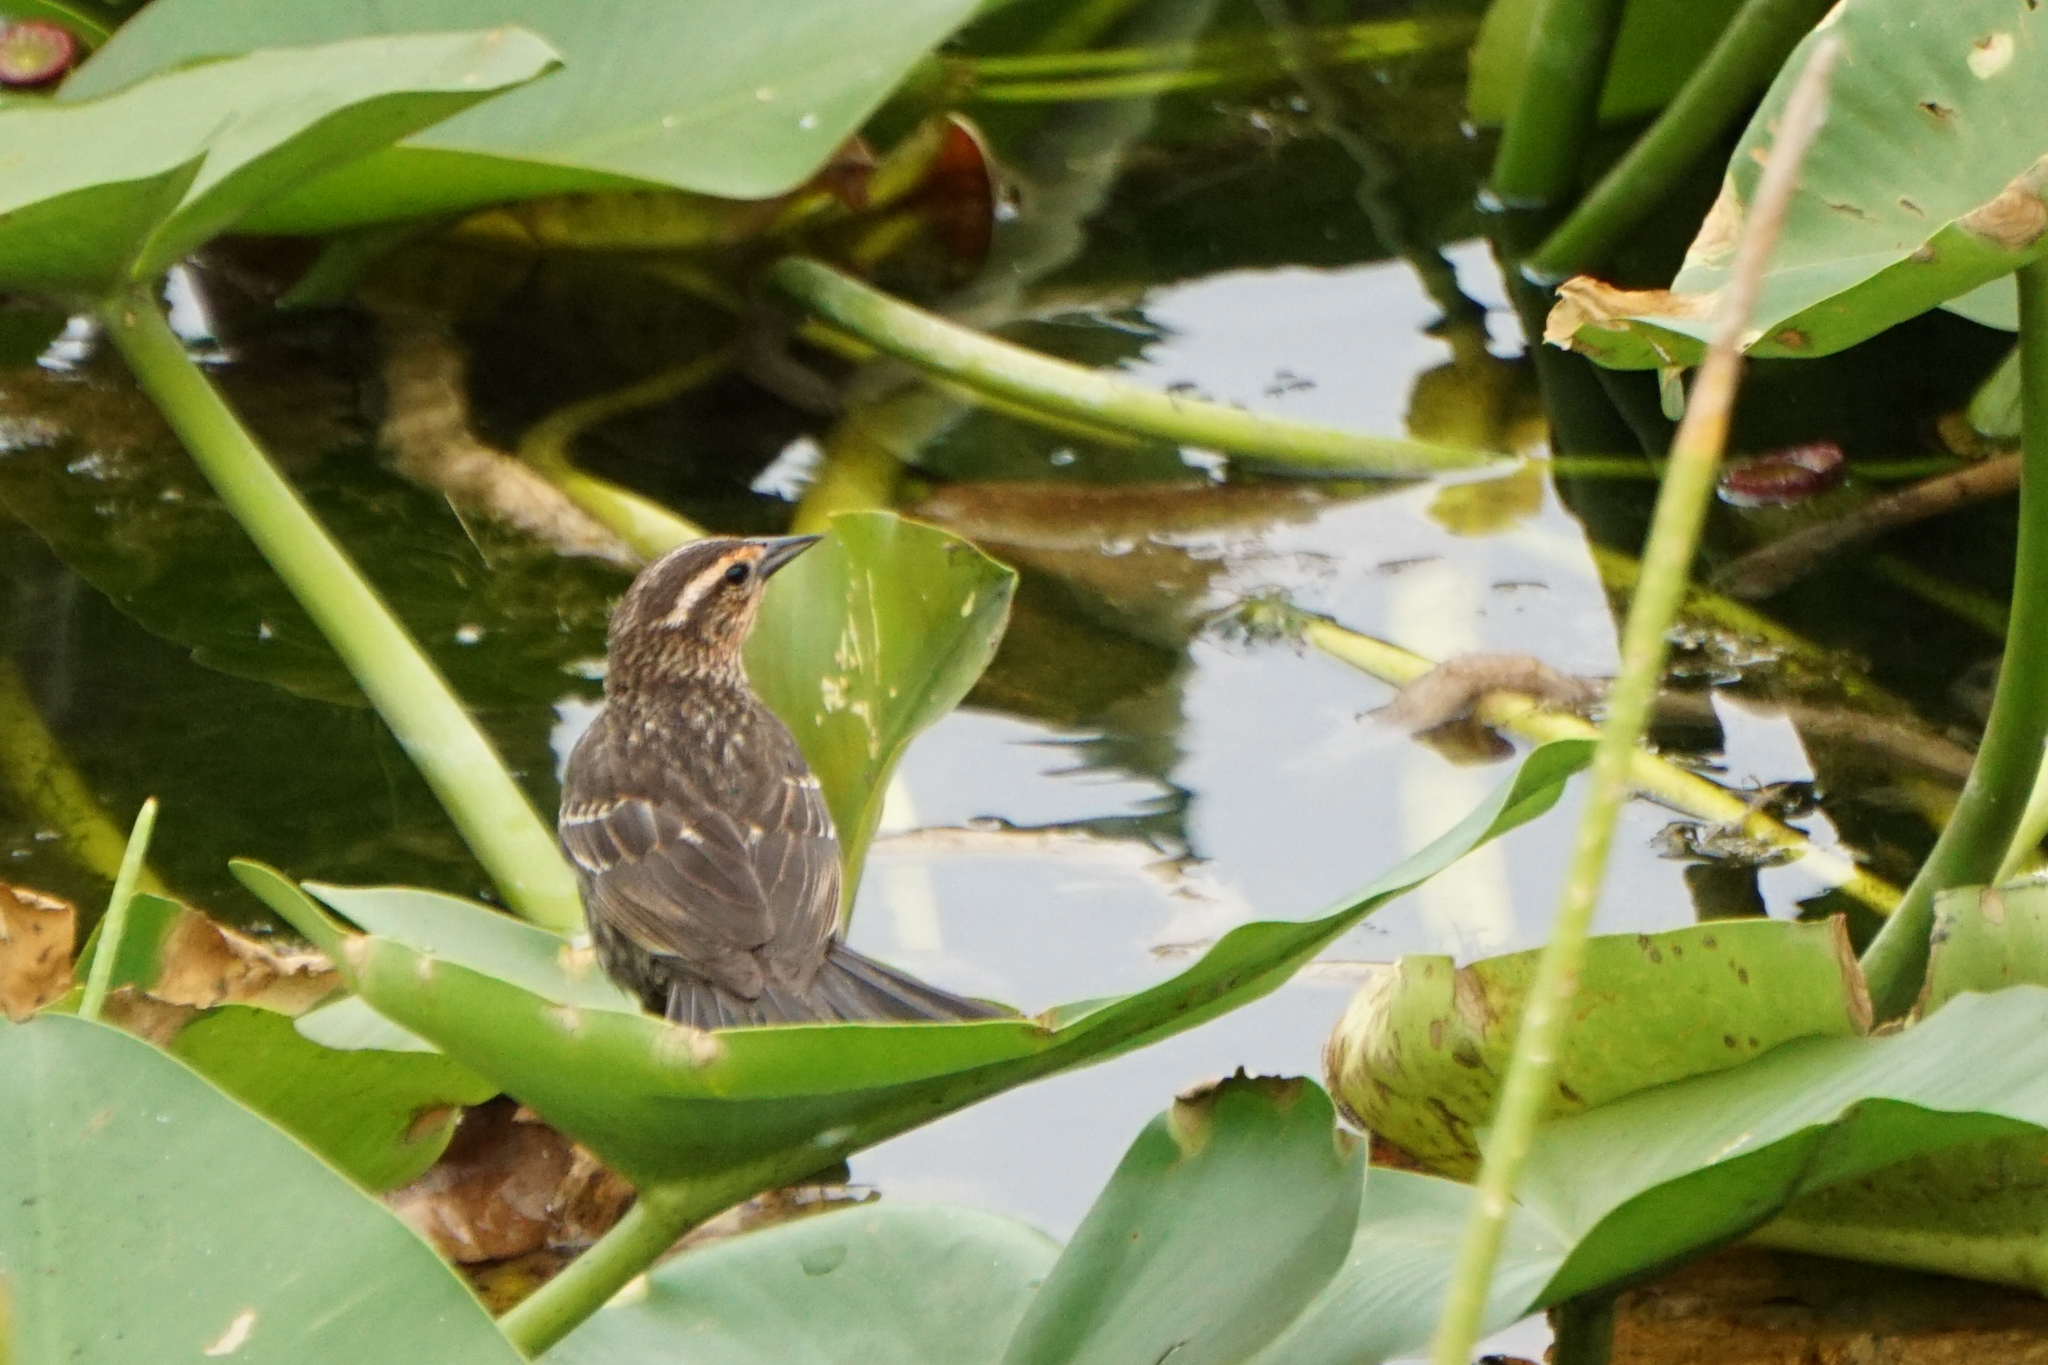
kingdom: Animalia
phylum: Chordata
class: Aves
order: Passeriformes
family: Icteridae
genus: Agelaius
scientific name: Agelaius phoeniceus
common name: Red-winged blackbird
